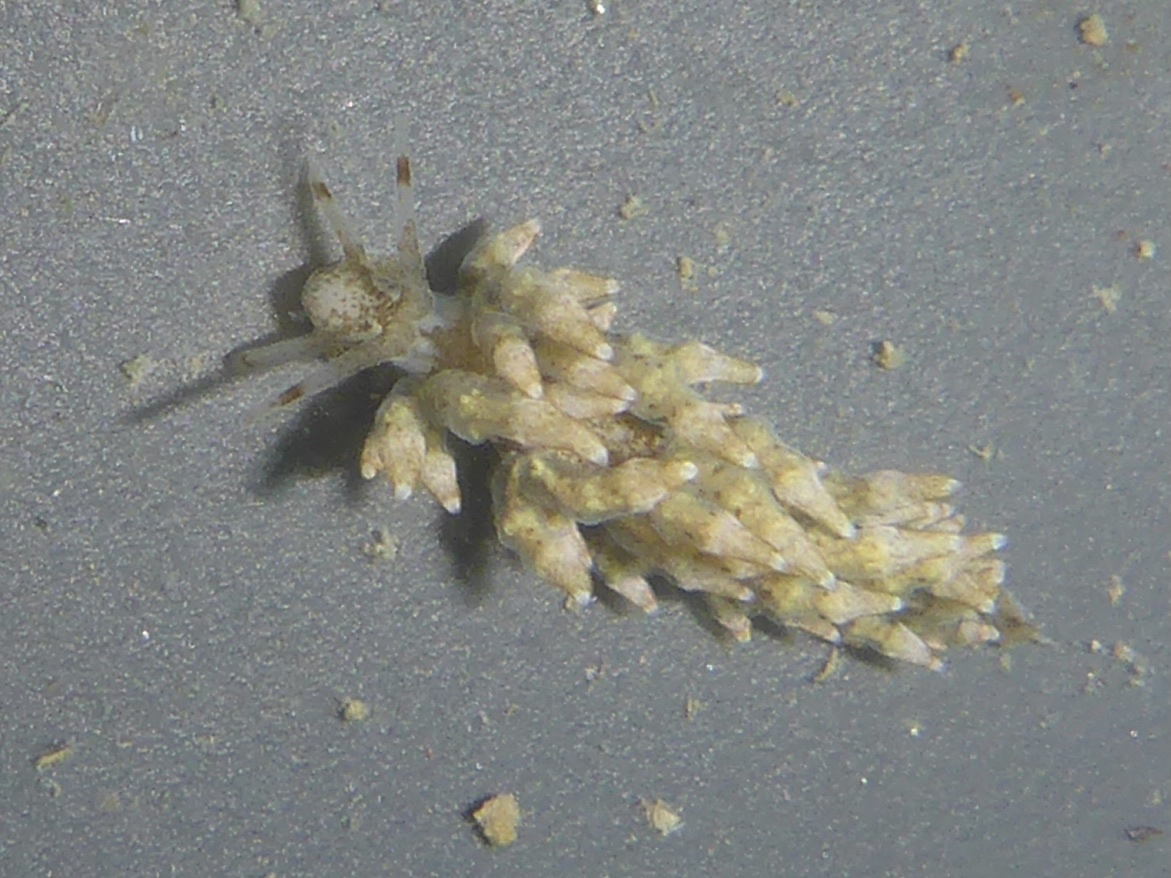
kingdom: Animalia
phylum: Mollusca
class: Gastropoda
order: Nudibranchia
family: Eubranchidae
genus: Eubranchus
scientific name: Eubranchus rustyus
